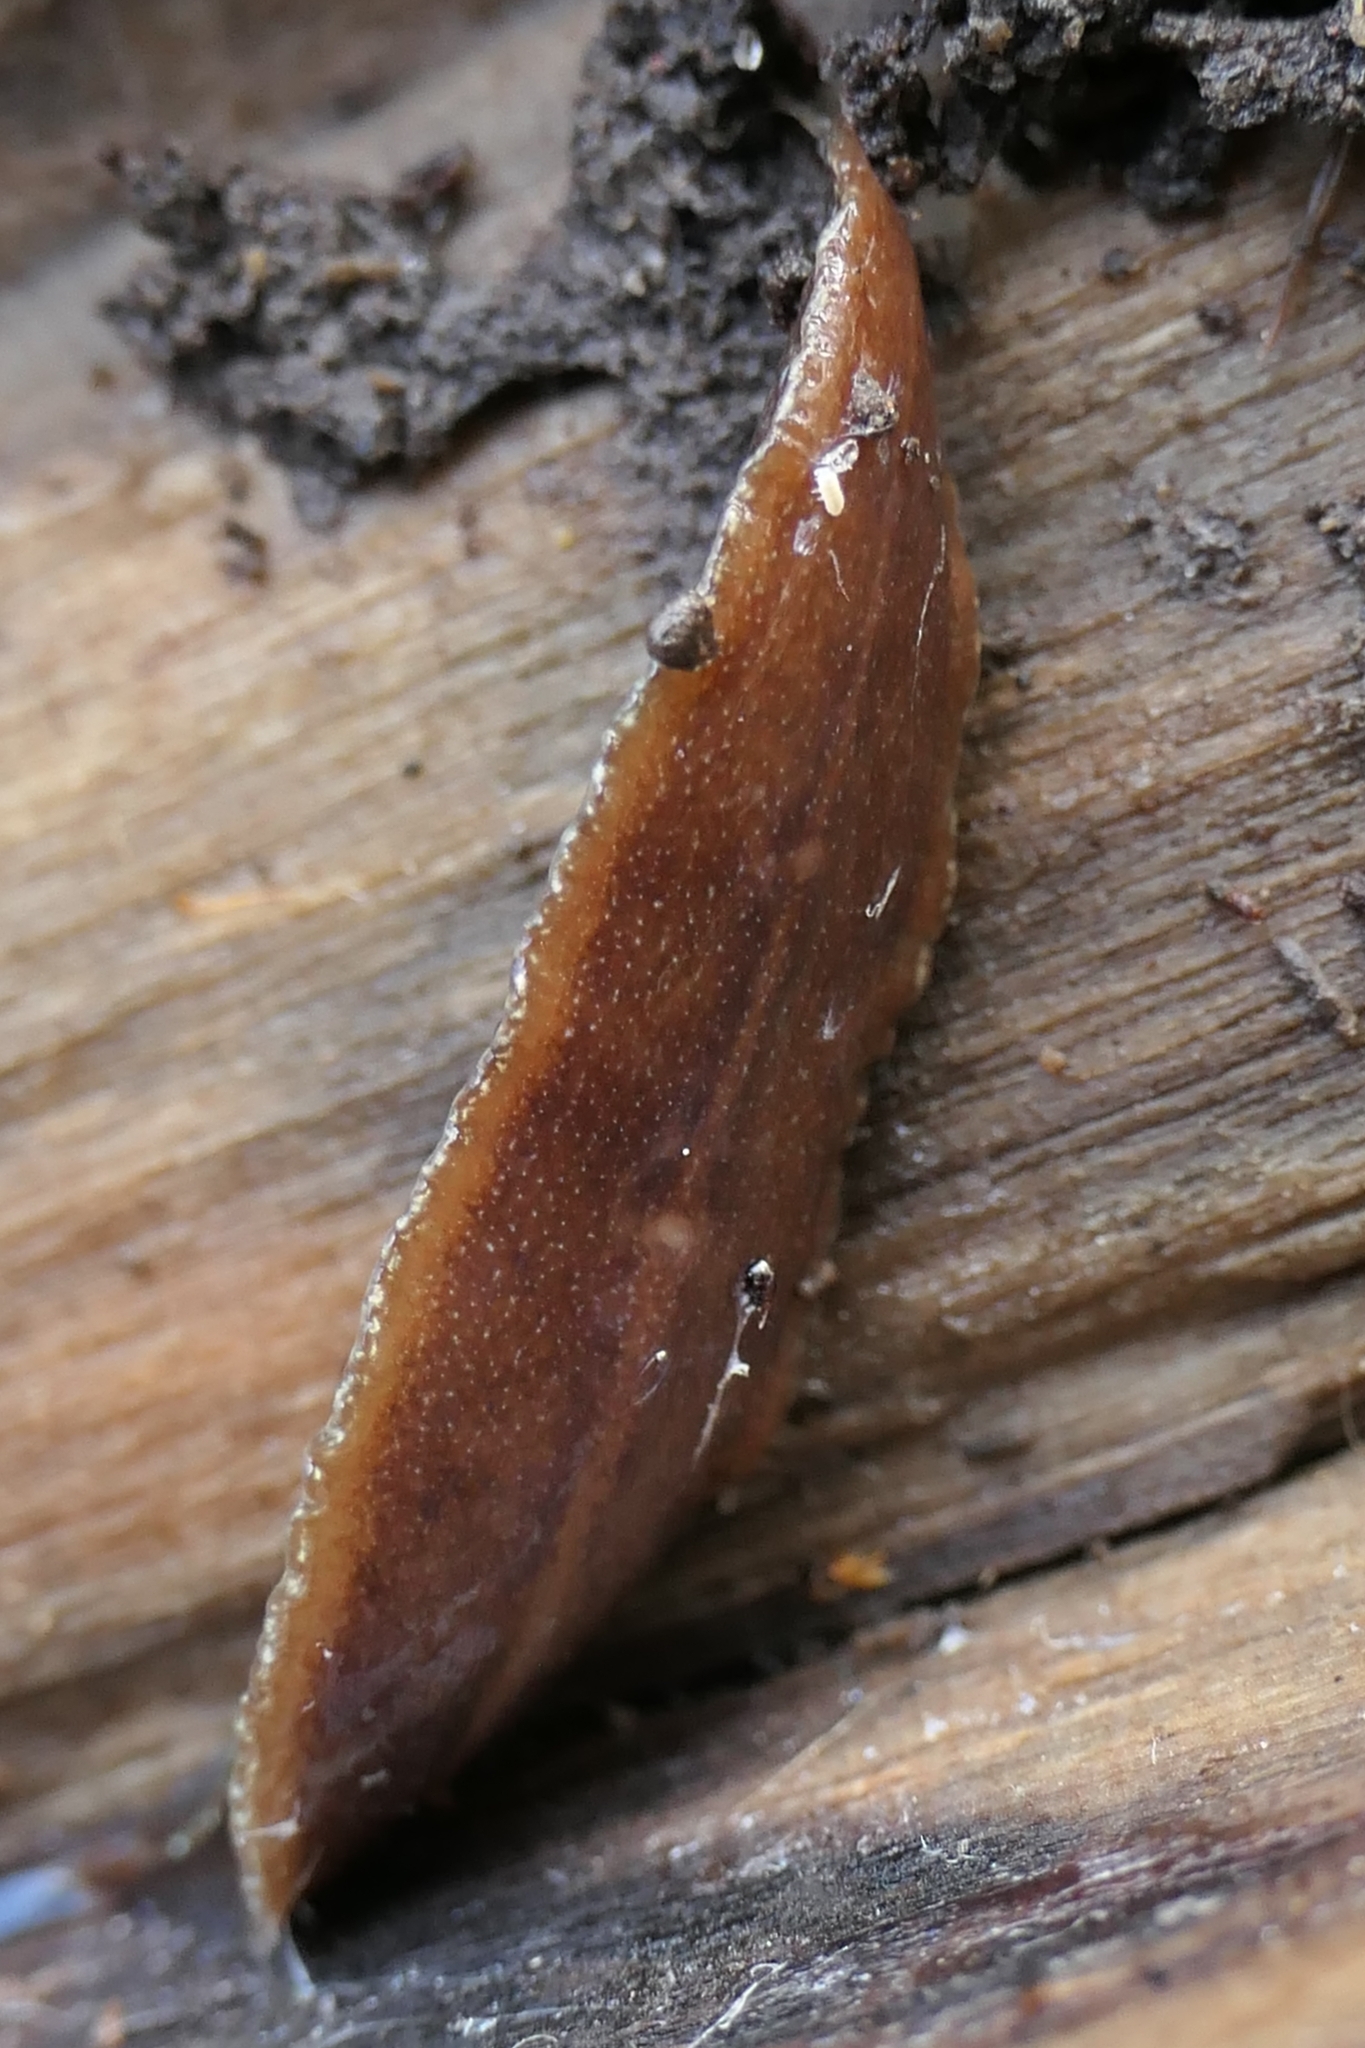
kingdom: Animalia
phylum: Platyhelminthes
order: Tricladida
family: Geoplanidae
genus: Newzealandia
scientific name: Newzealandia graffii
